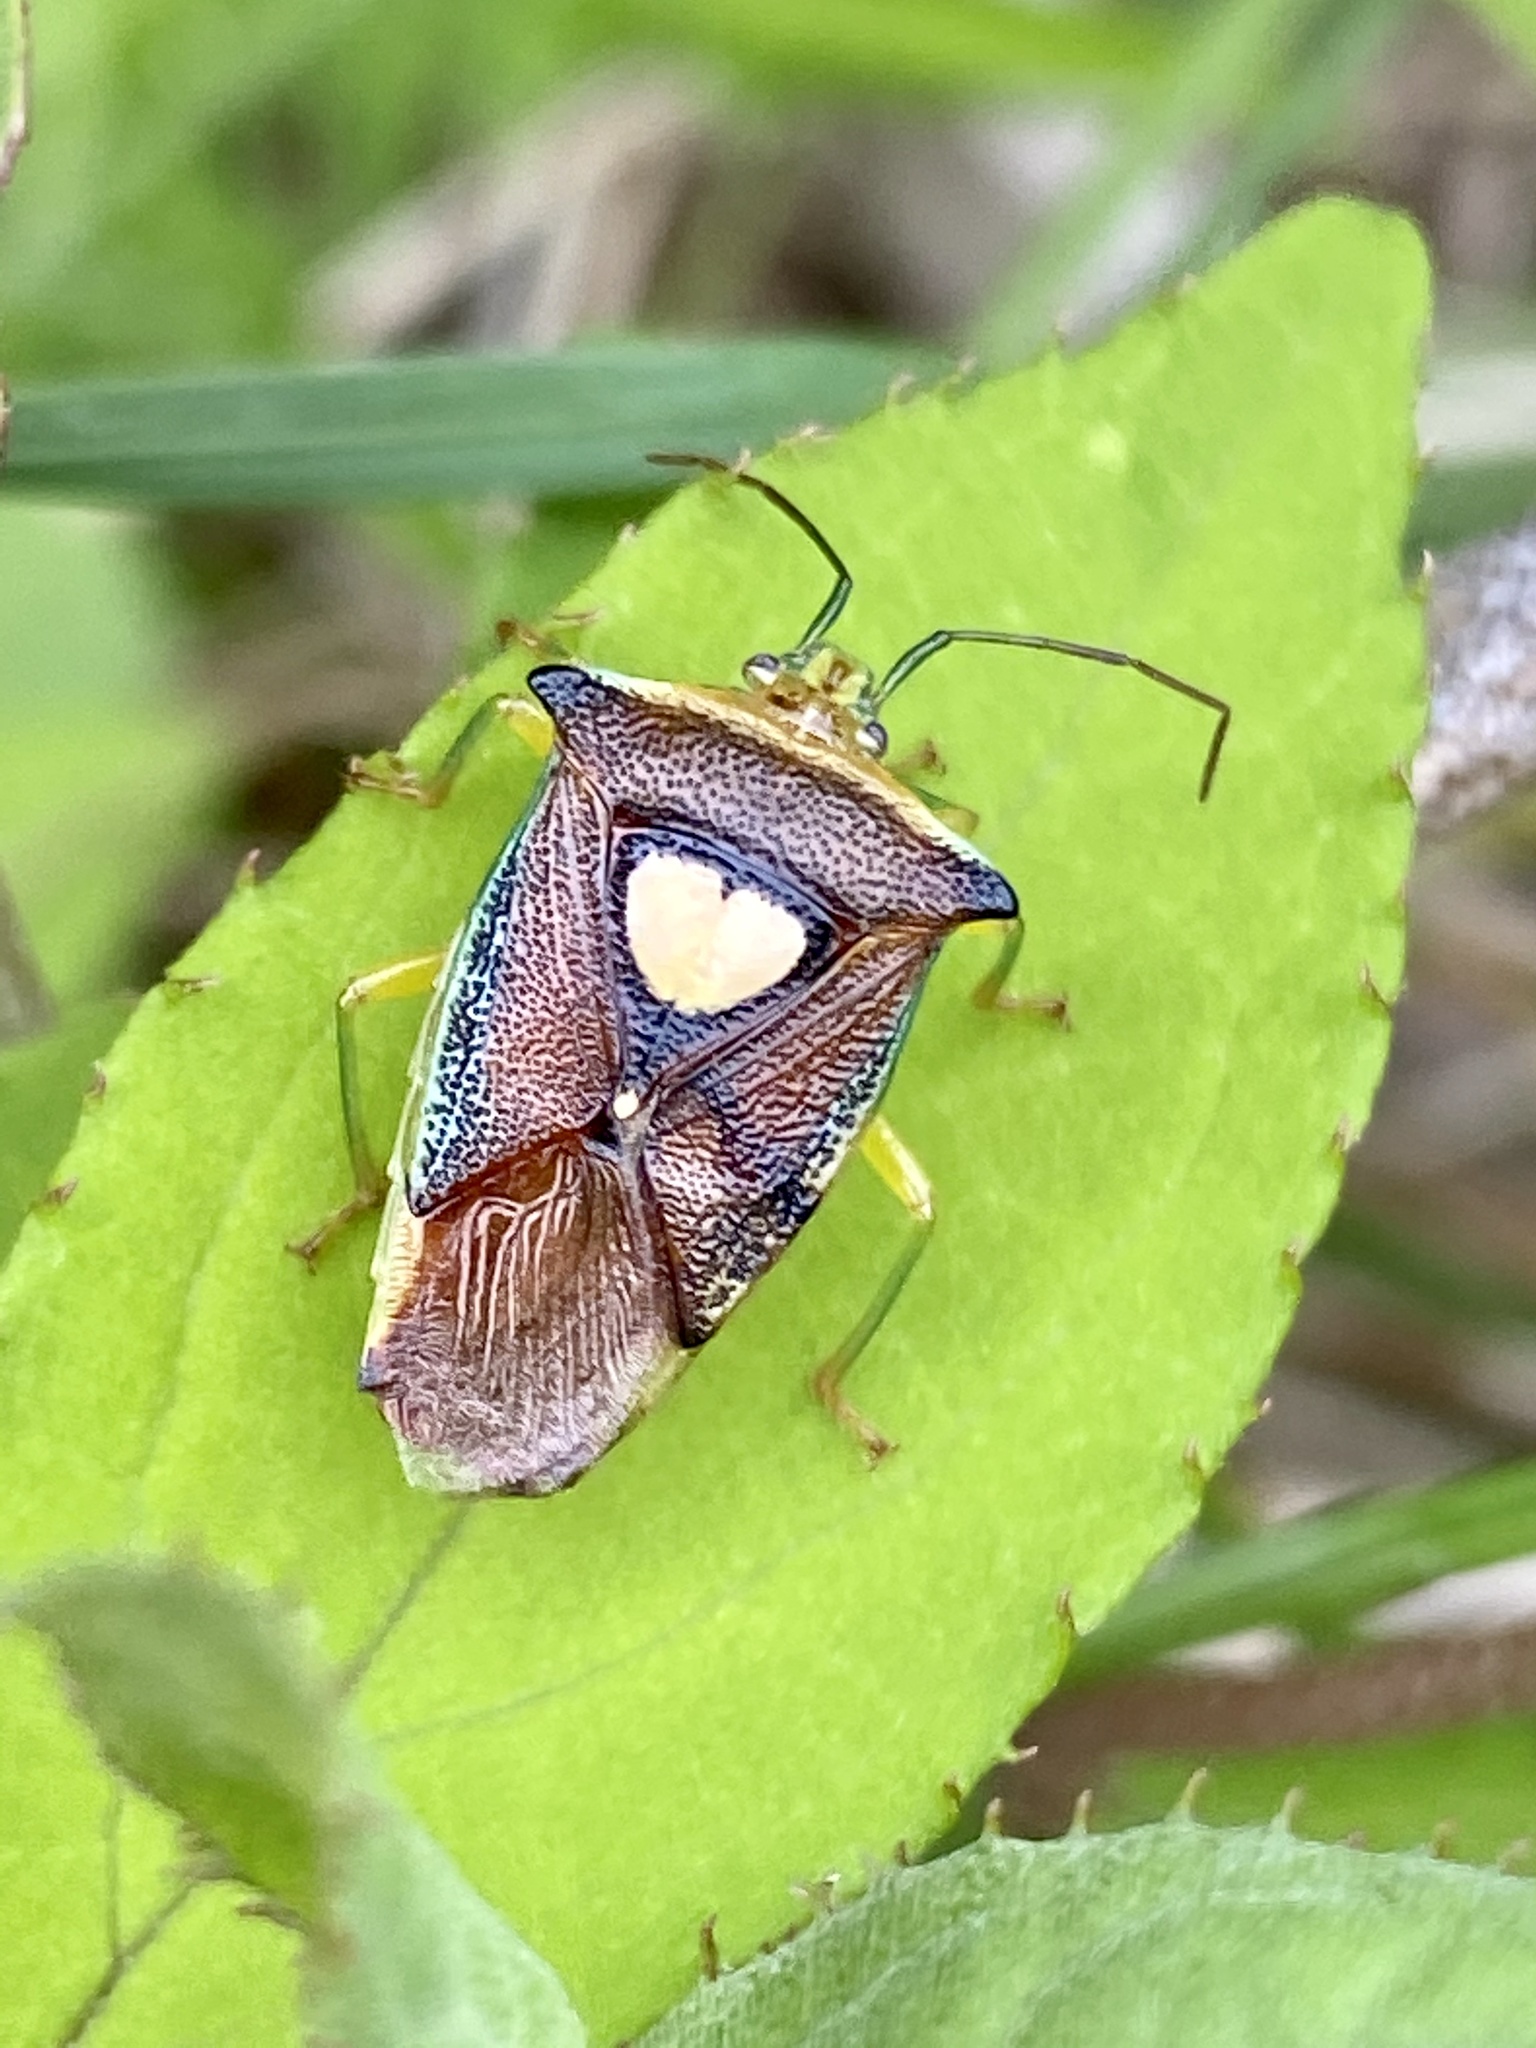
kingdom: Animalia
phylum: Arthropoda
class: Insecta
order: Hemiptera
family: Acanthosomatidae
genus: Sastragala
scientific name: Sastragala esakii
